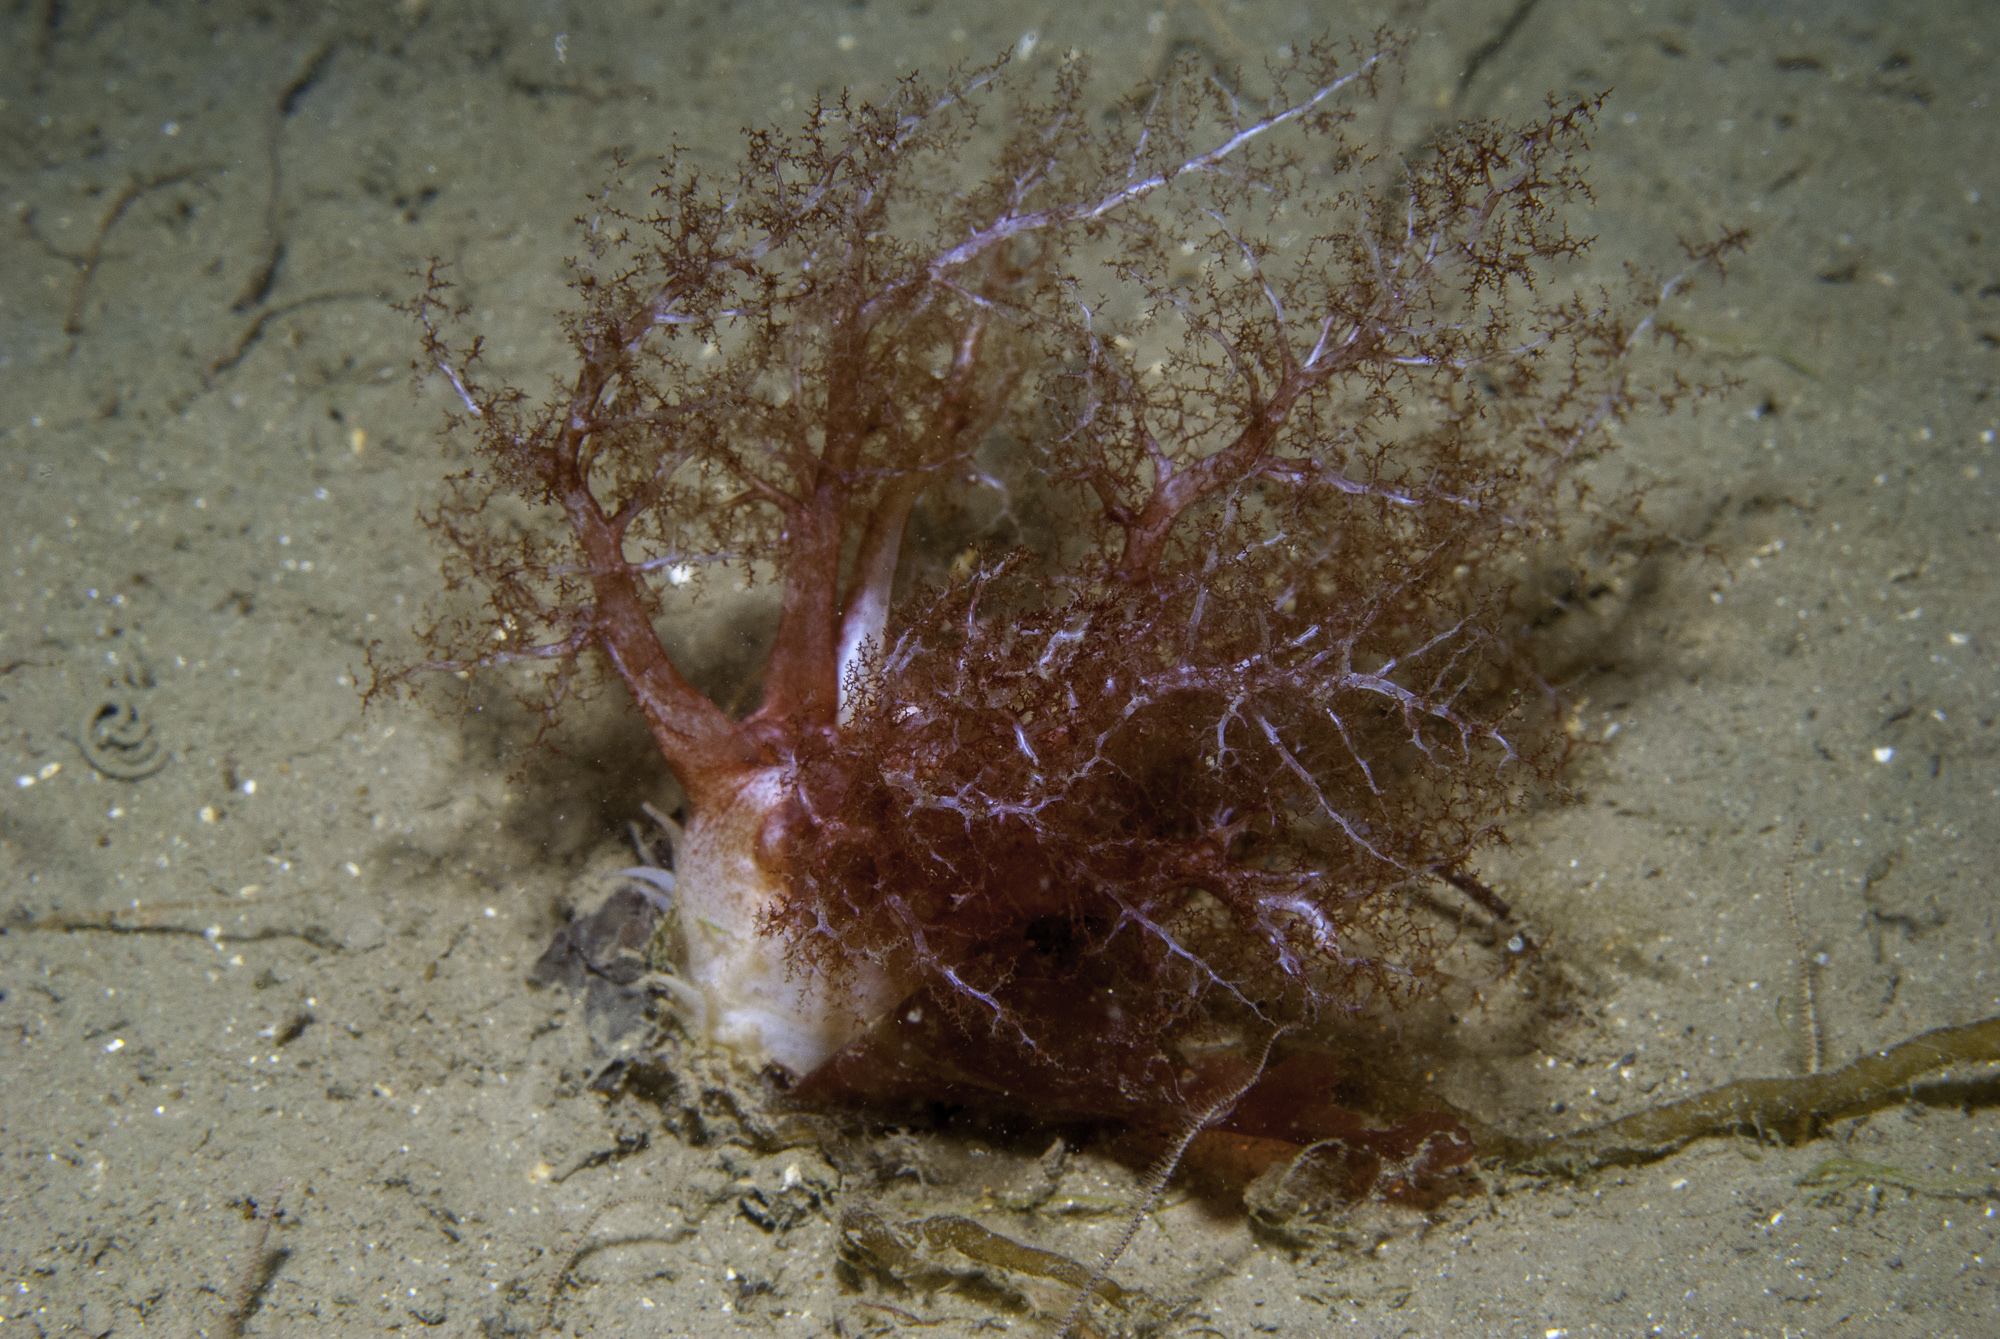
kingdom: Animalia
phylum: Echinodermata
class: Holothuroidea
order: Dendrochirotida
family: Cucumariidae
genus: Thyonidium
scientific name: Thyonidium drummondii
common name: Drummond's sea cucumber
